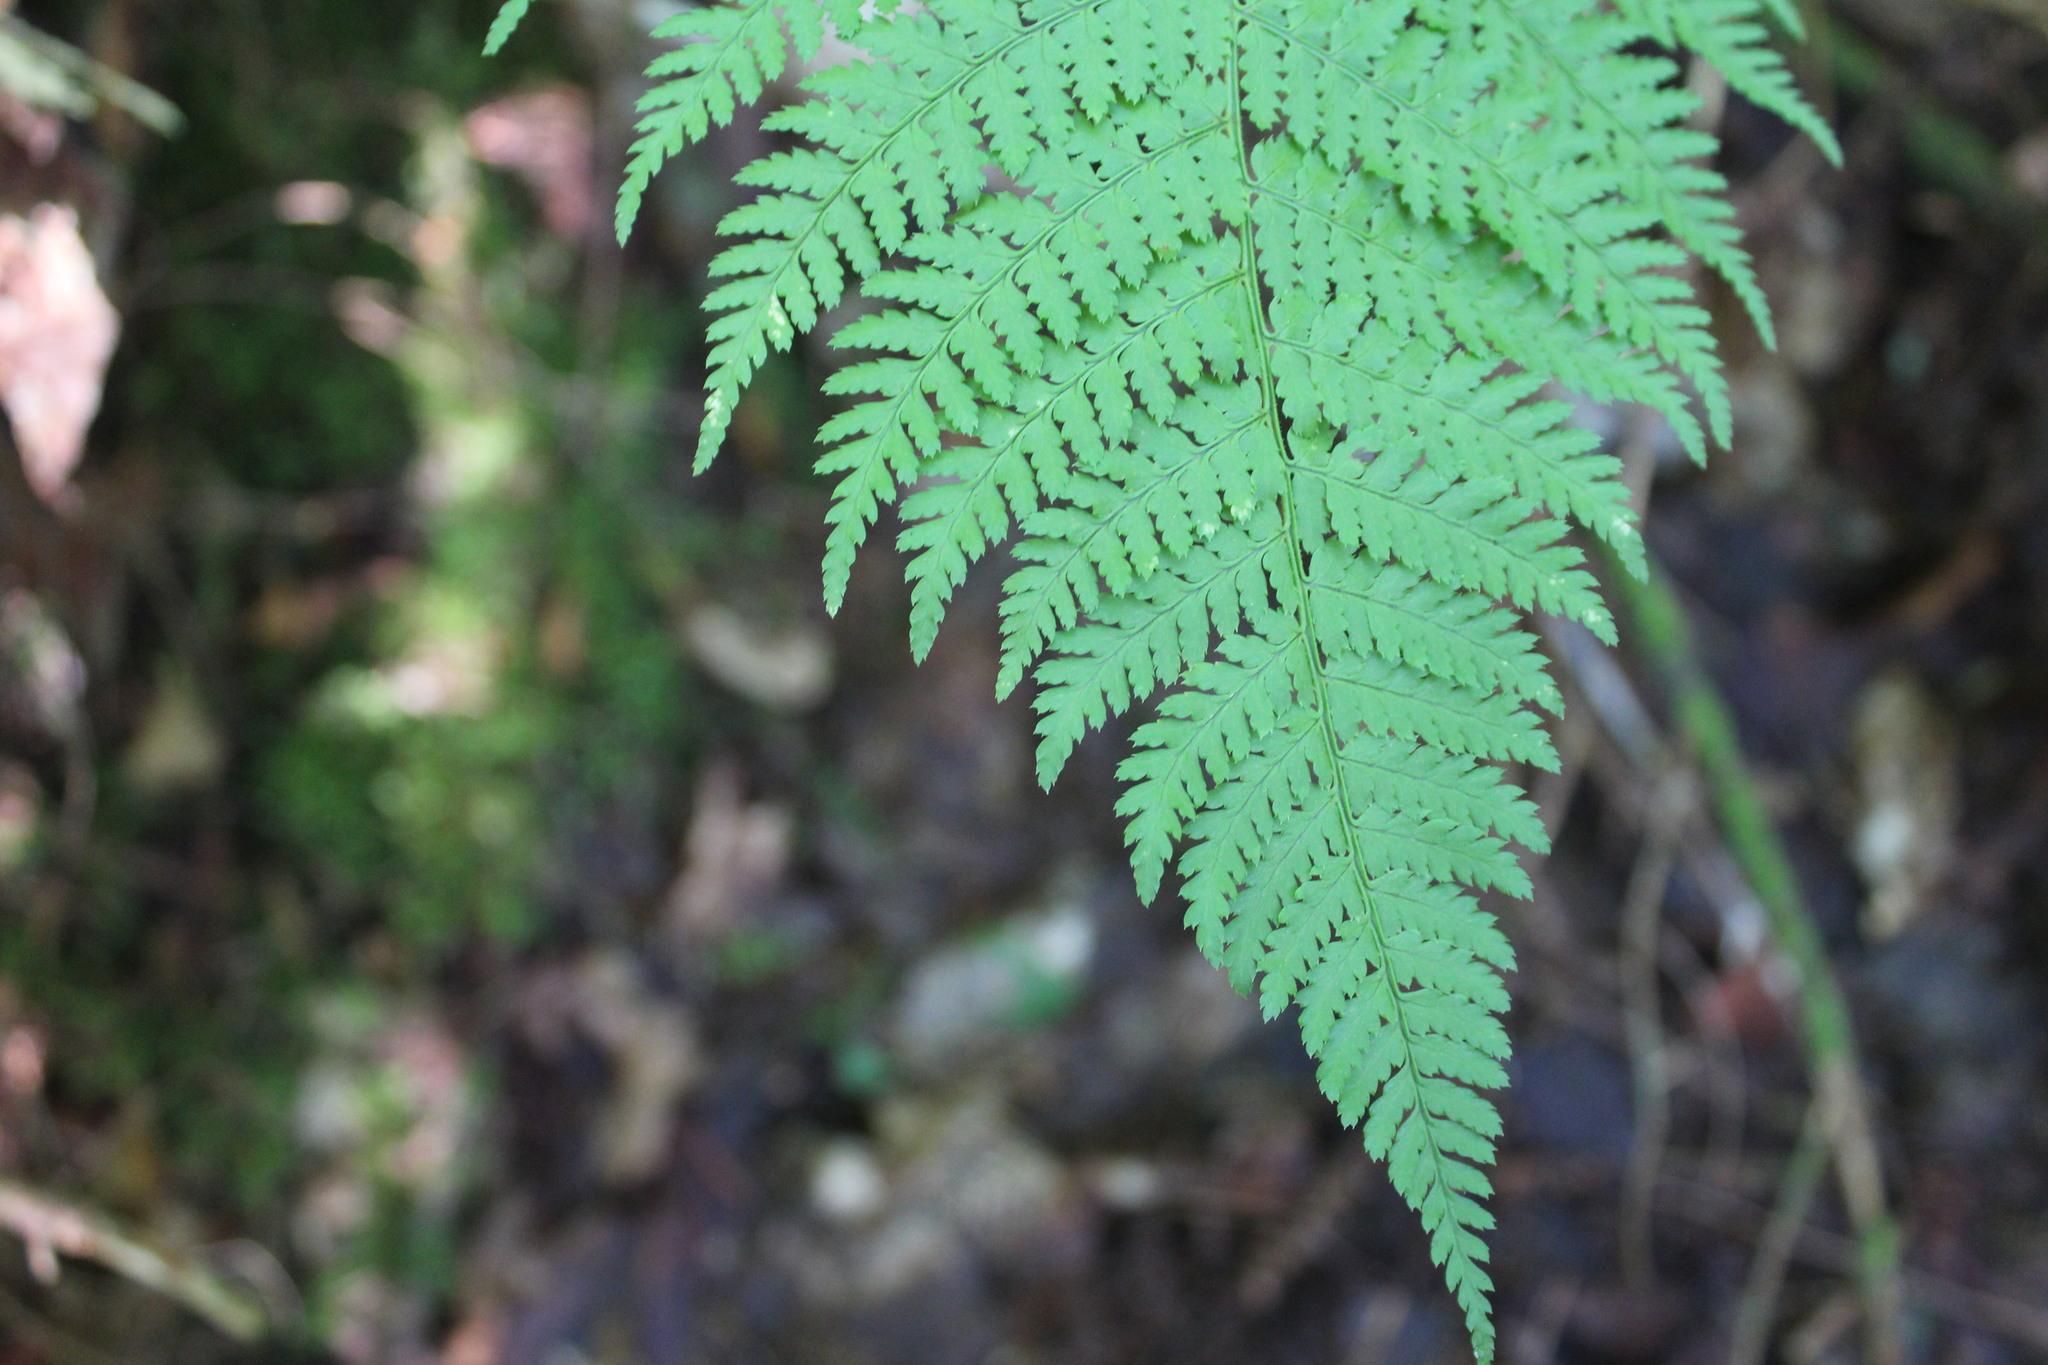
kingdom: Plantae
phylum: Tracheophyta
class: Polypodiopsida
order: Polypodiales
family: Dryopteridaceae
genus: Dryopteris
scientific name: Dryopteris intermedia
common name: Evergreen wood fern
